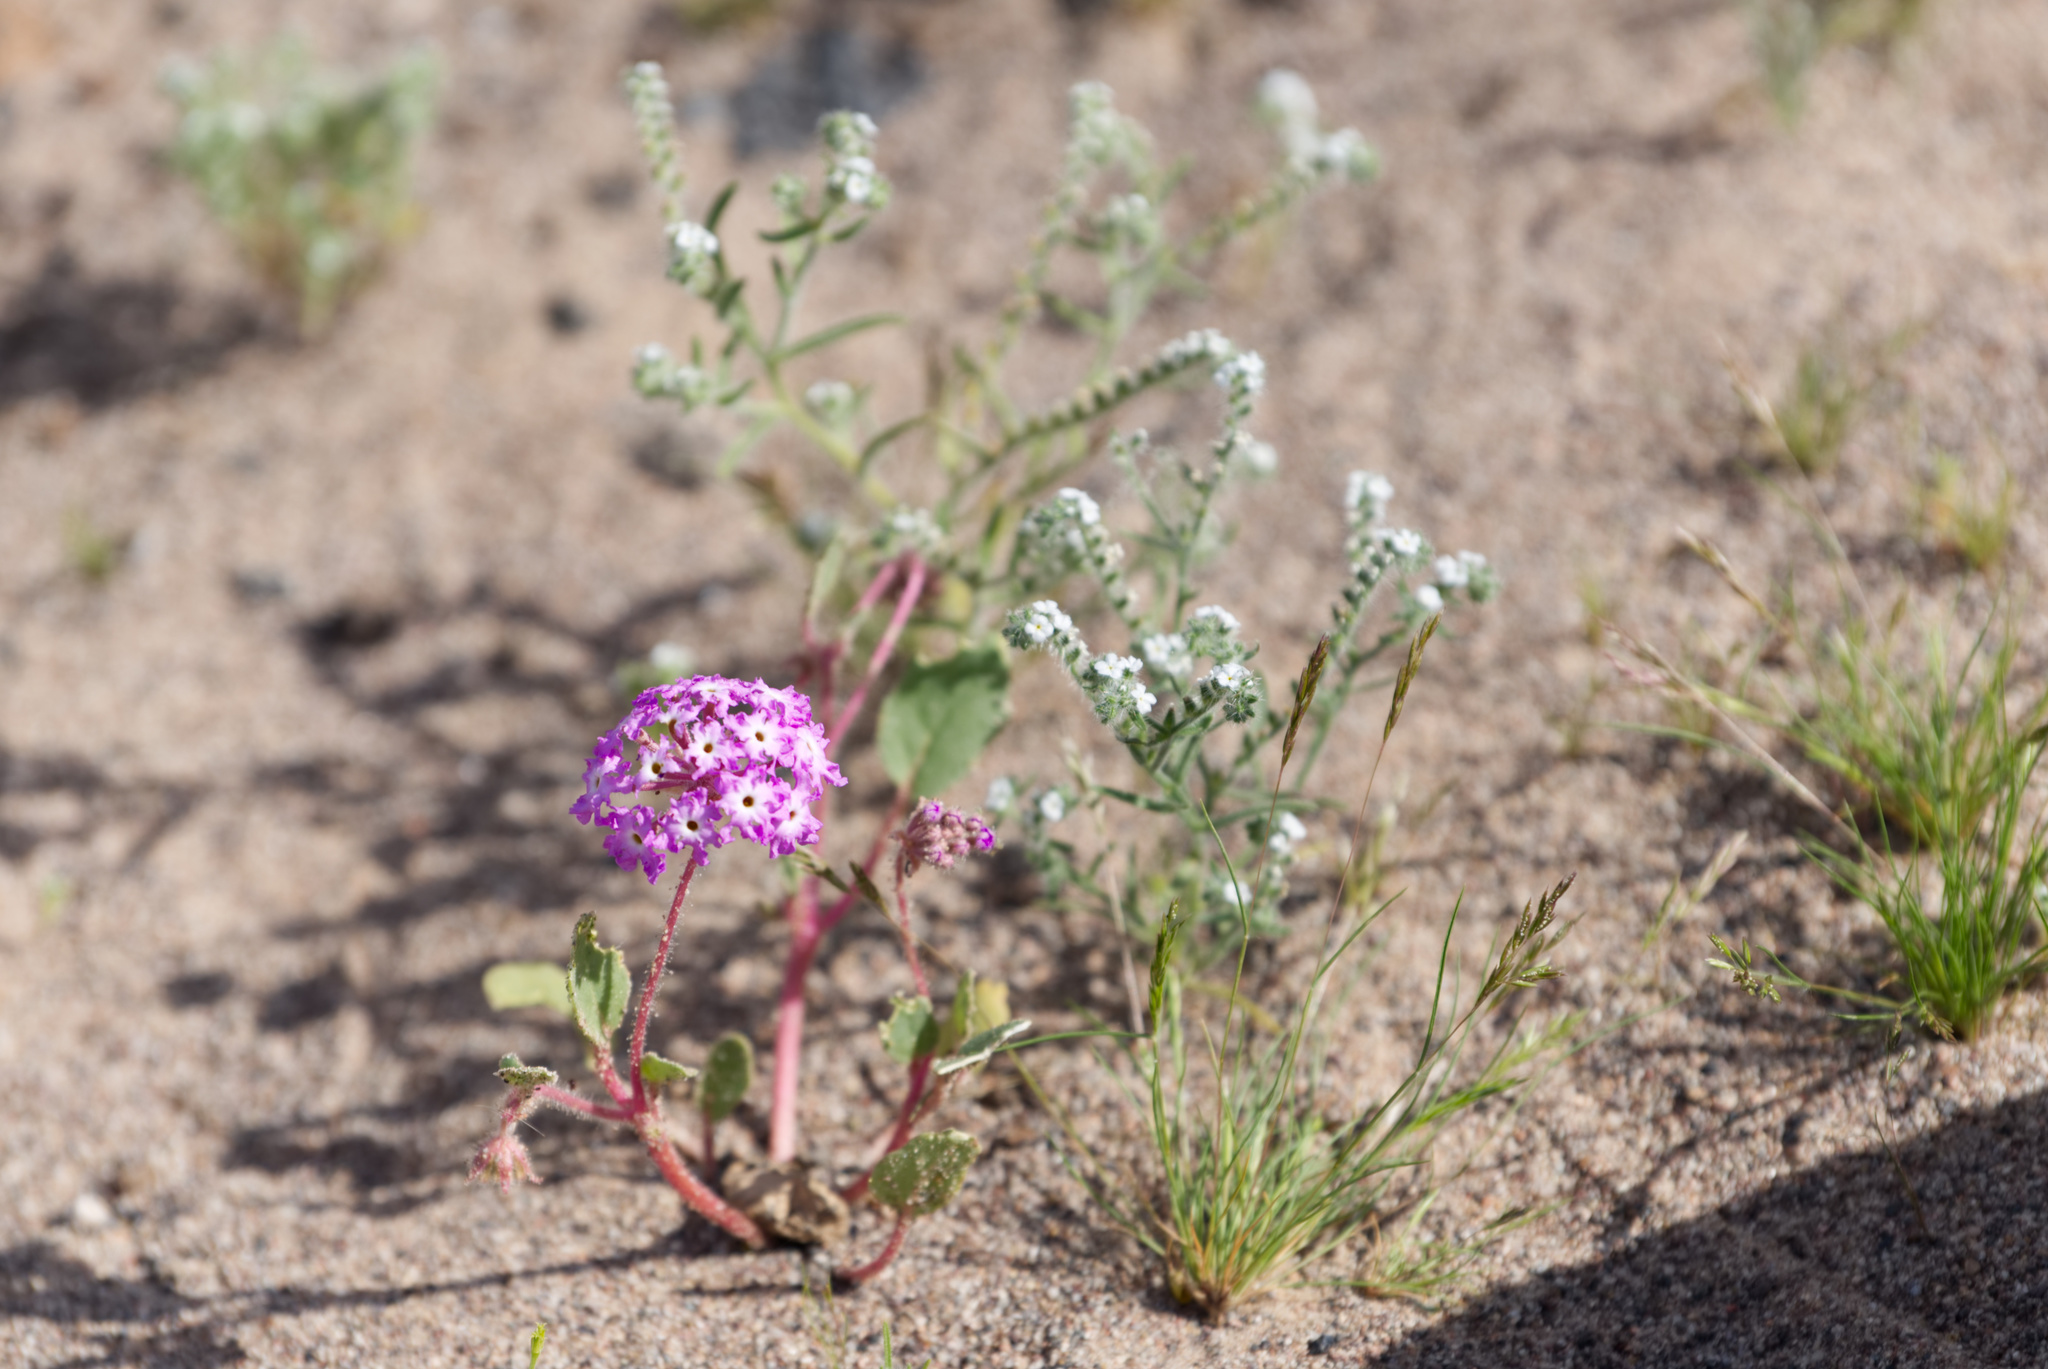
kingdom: Plantae
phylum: Tracheophyta
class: Magnoliopsida
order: Caryophyllales
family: Nyctaginaceae
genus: Abronia
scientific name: Abronia villosa
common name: Desert sand-verbena
